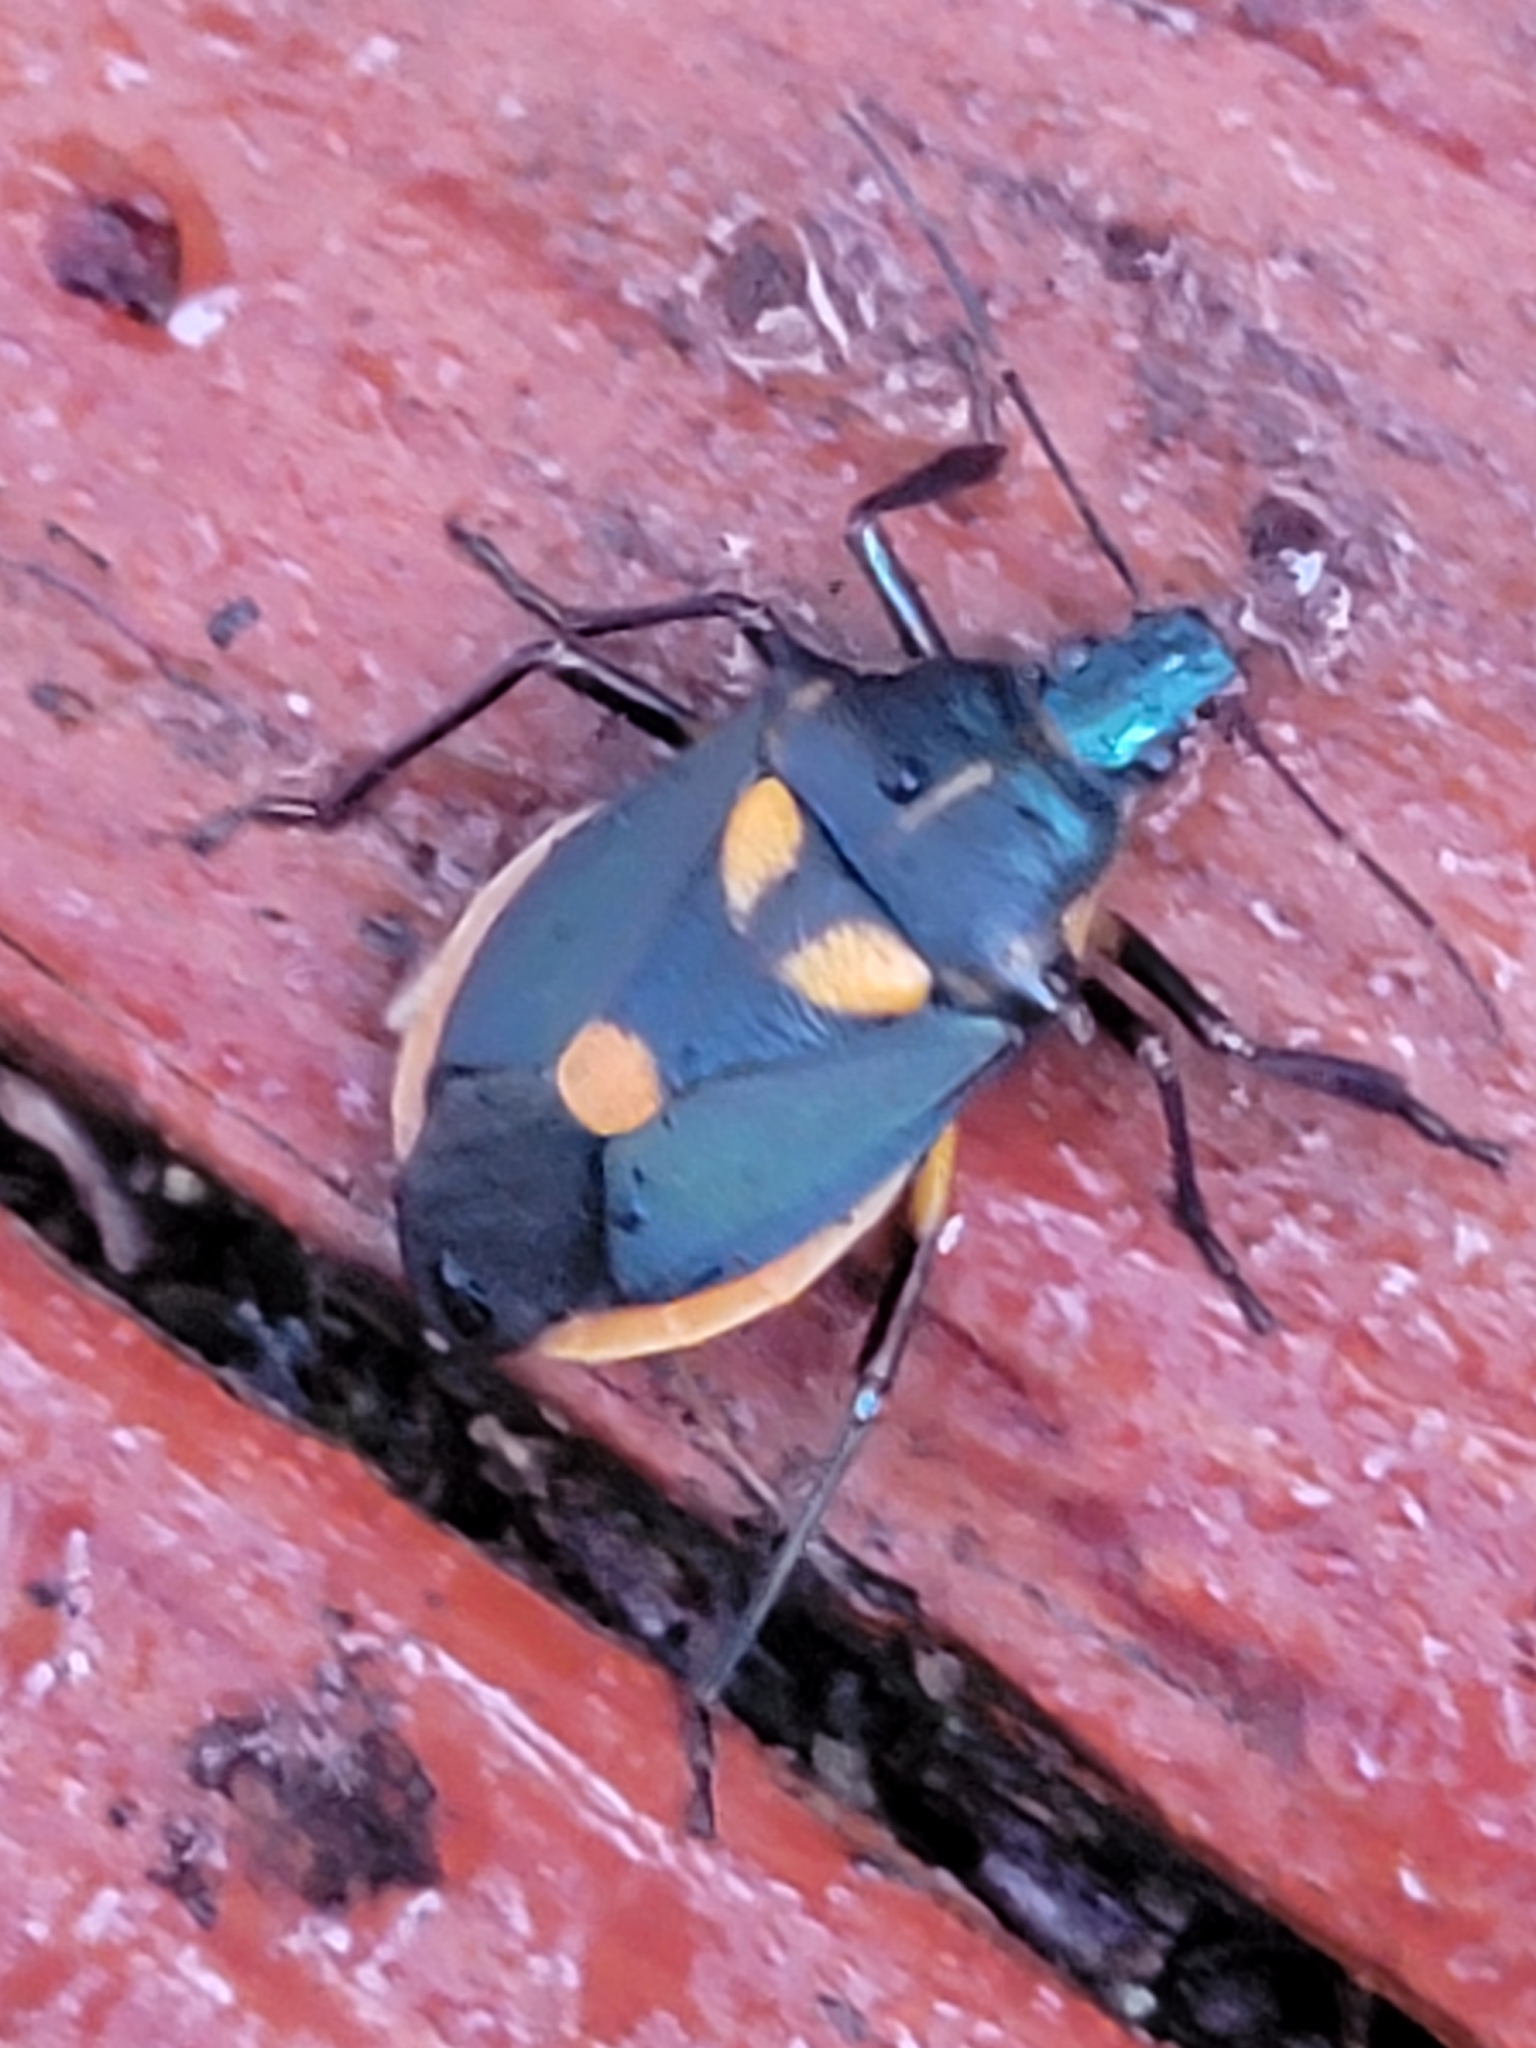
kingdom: Animalia
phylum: Arthropoda
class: Insecta
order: Hemiptera
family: Pentatomidae
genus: Euthyrhynchus
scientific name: Euthyrhynchus floridanus
